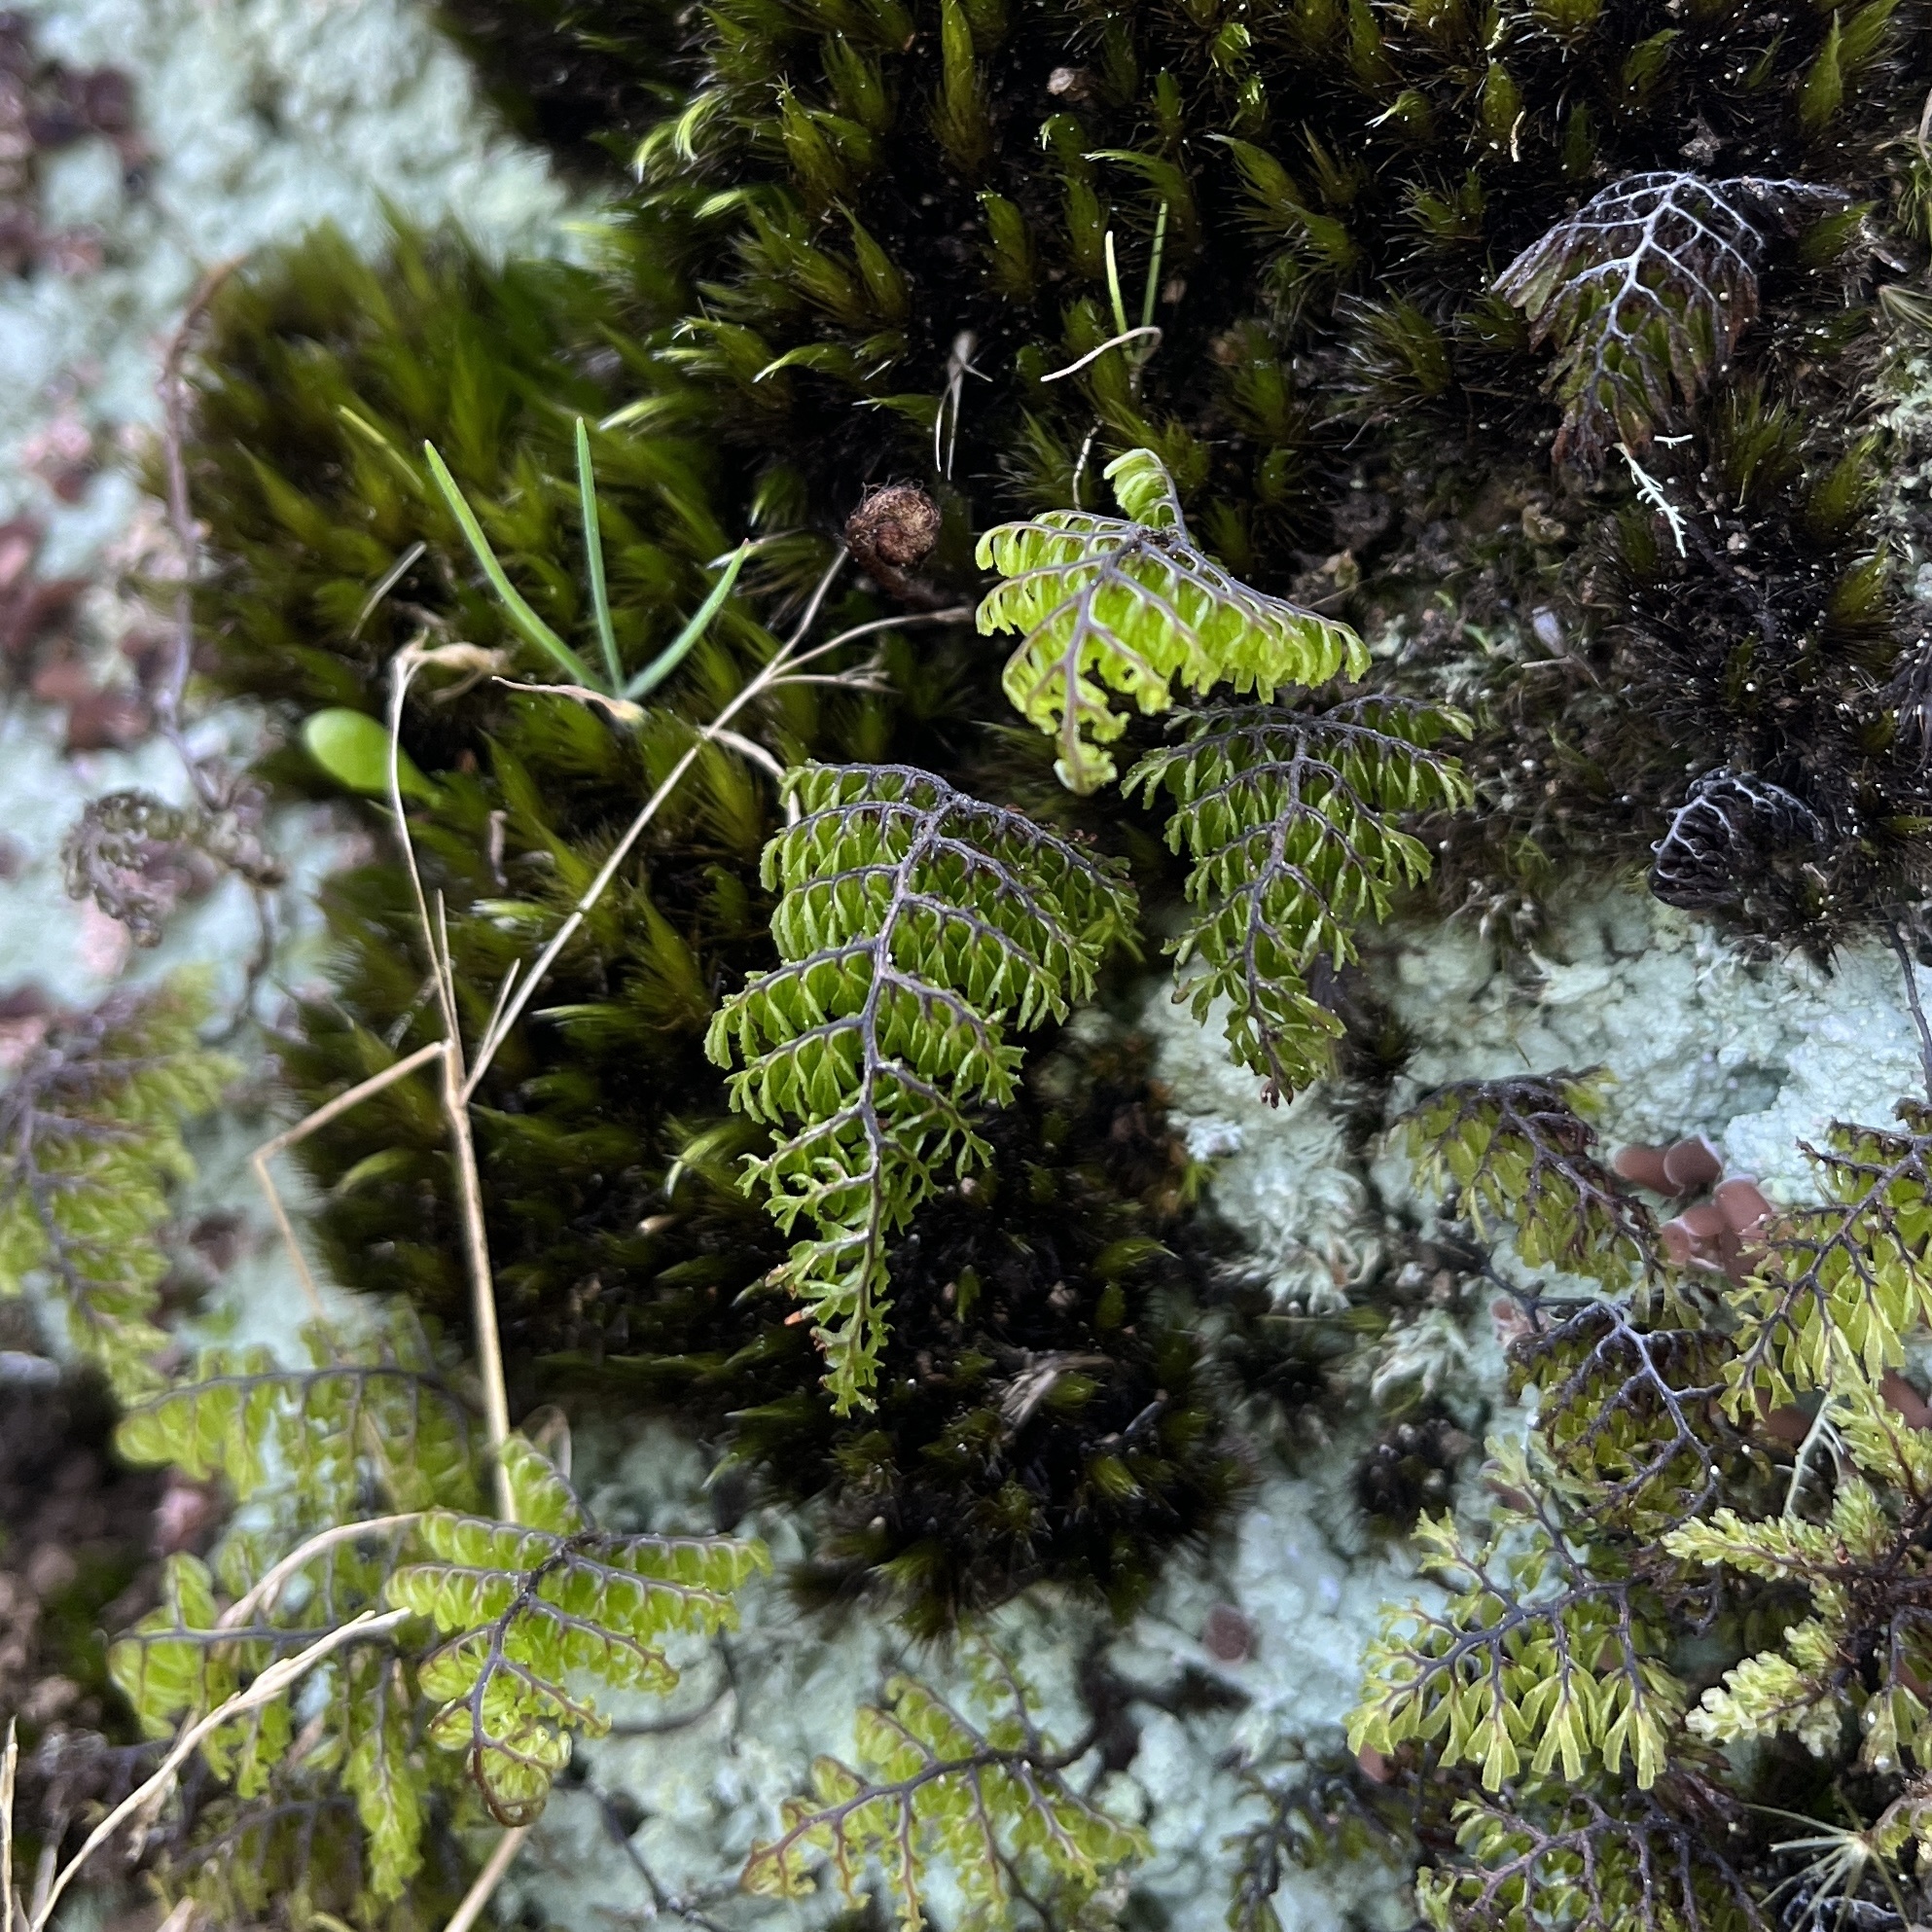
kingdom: Plantae
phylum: Tracheophyta
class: Polypodiopsida
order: Hymenophyllales
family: Hymenophyllaceae
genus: Hymenophyllum
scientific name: Hymenophyllum dentatum
